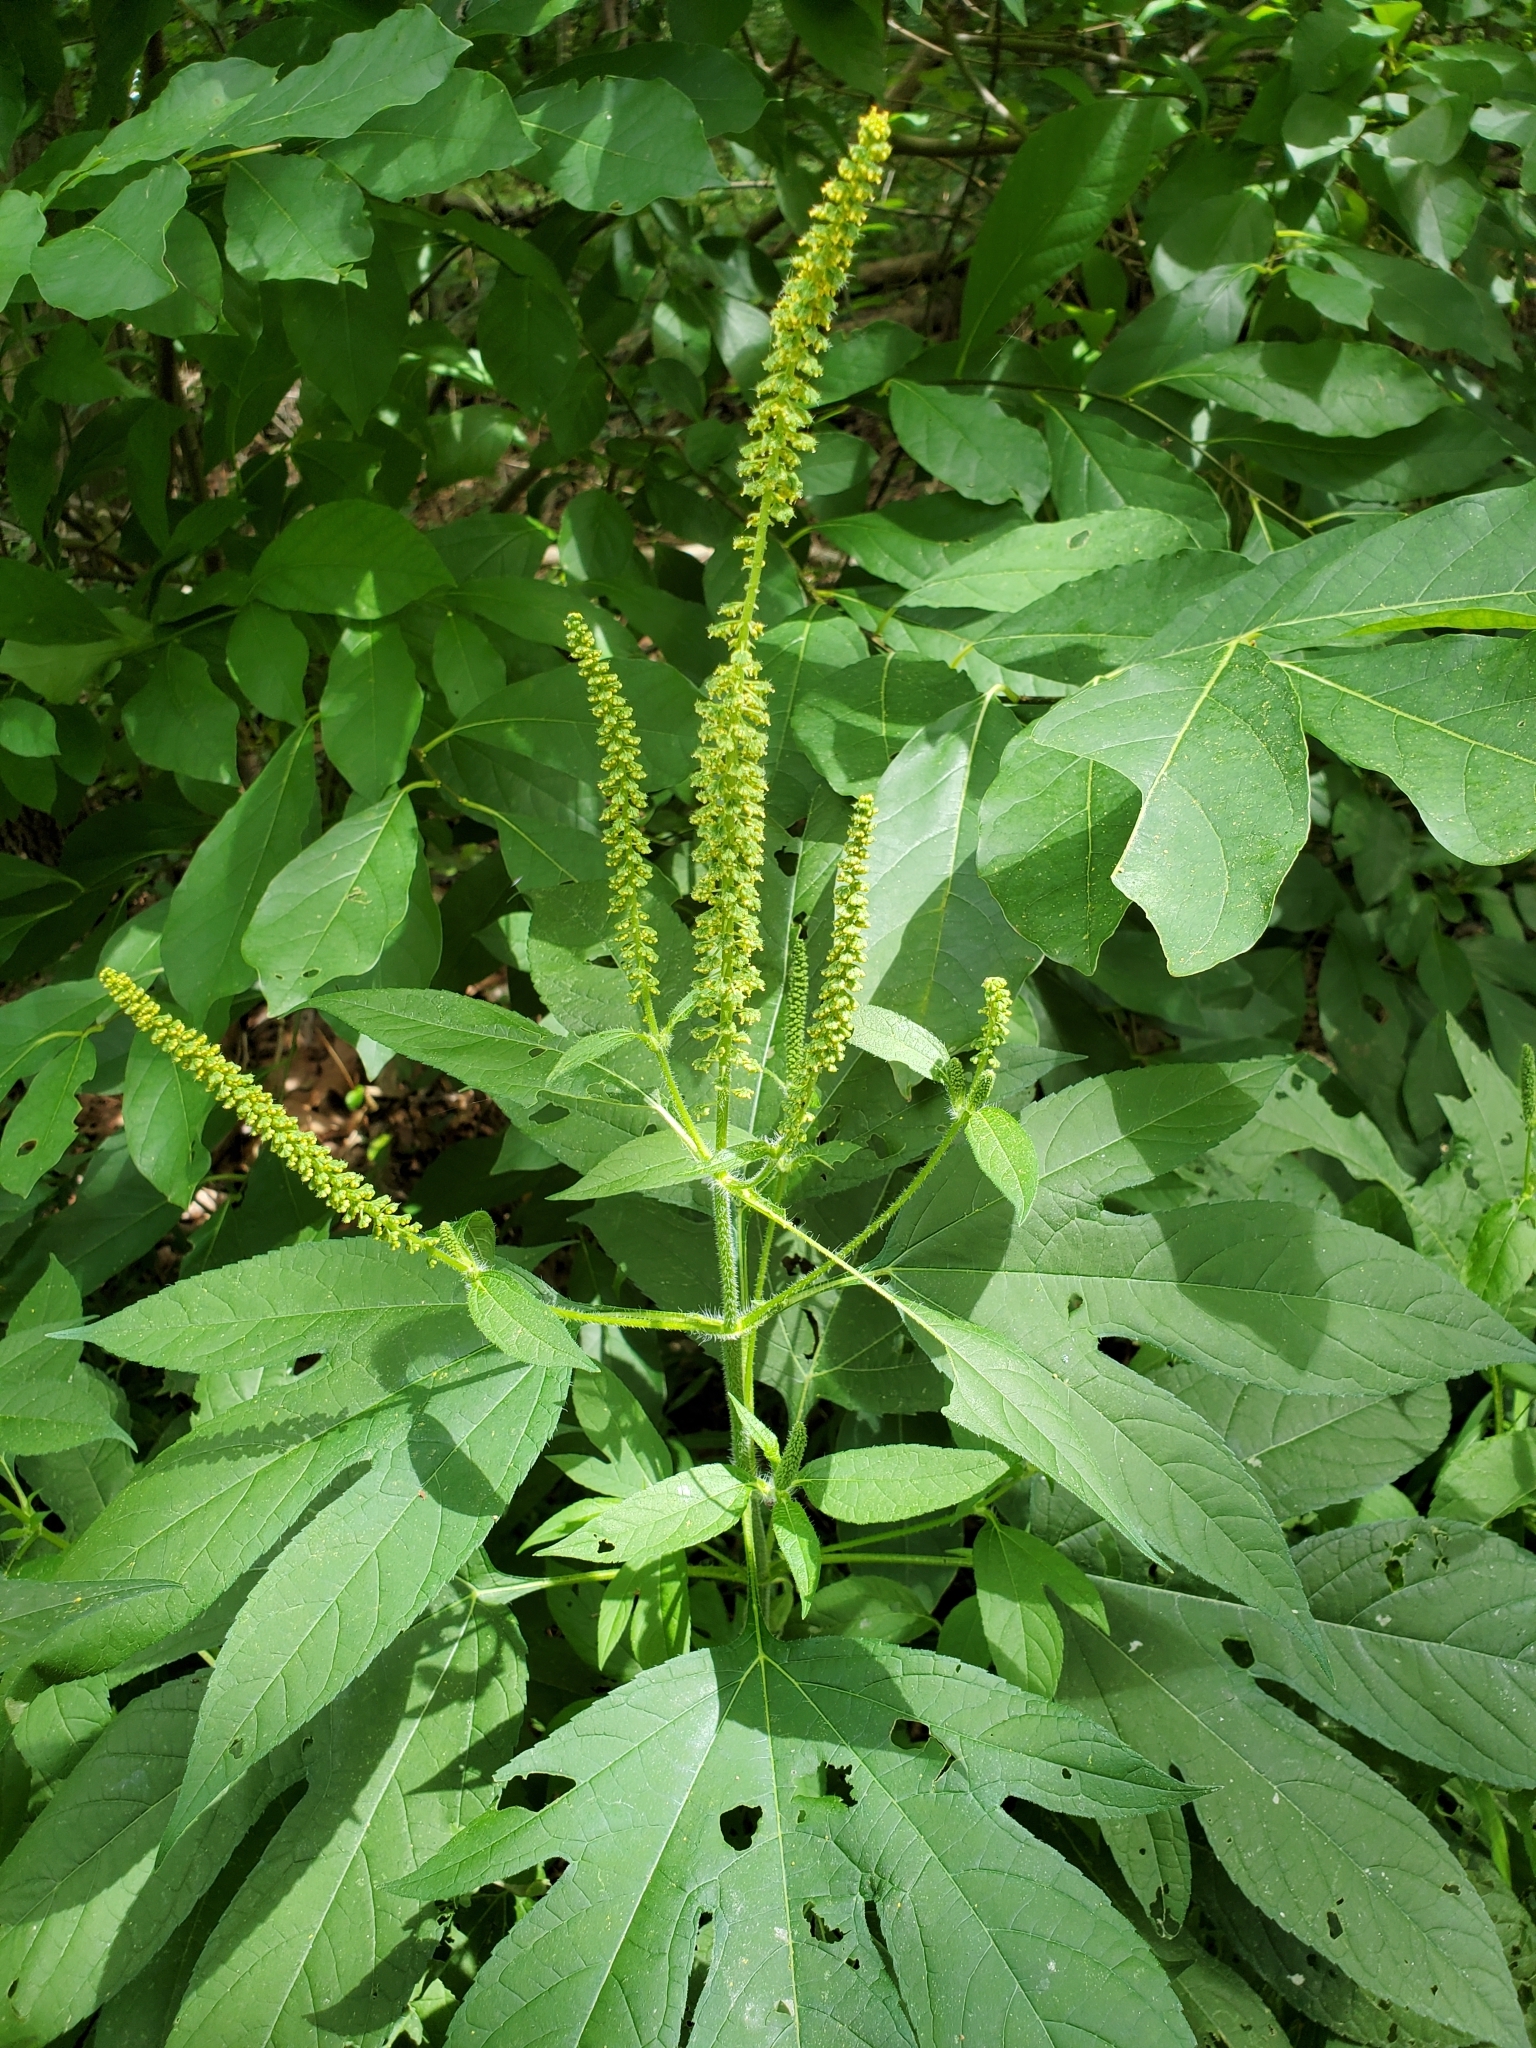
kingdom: Plantae
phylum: Tracheophyta
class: Magnoliopsida
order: Asterales
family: Asteraceae
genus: Ambrosia
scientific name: Ambrosia trifida
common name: Giant ragweed
